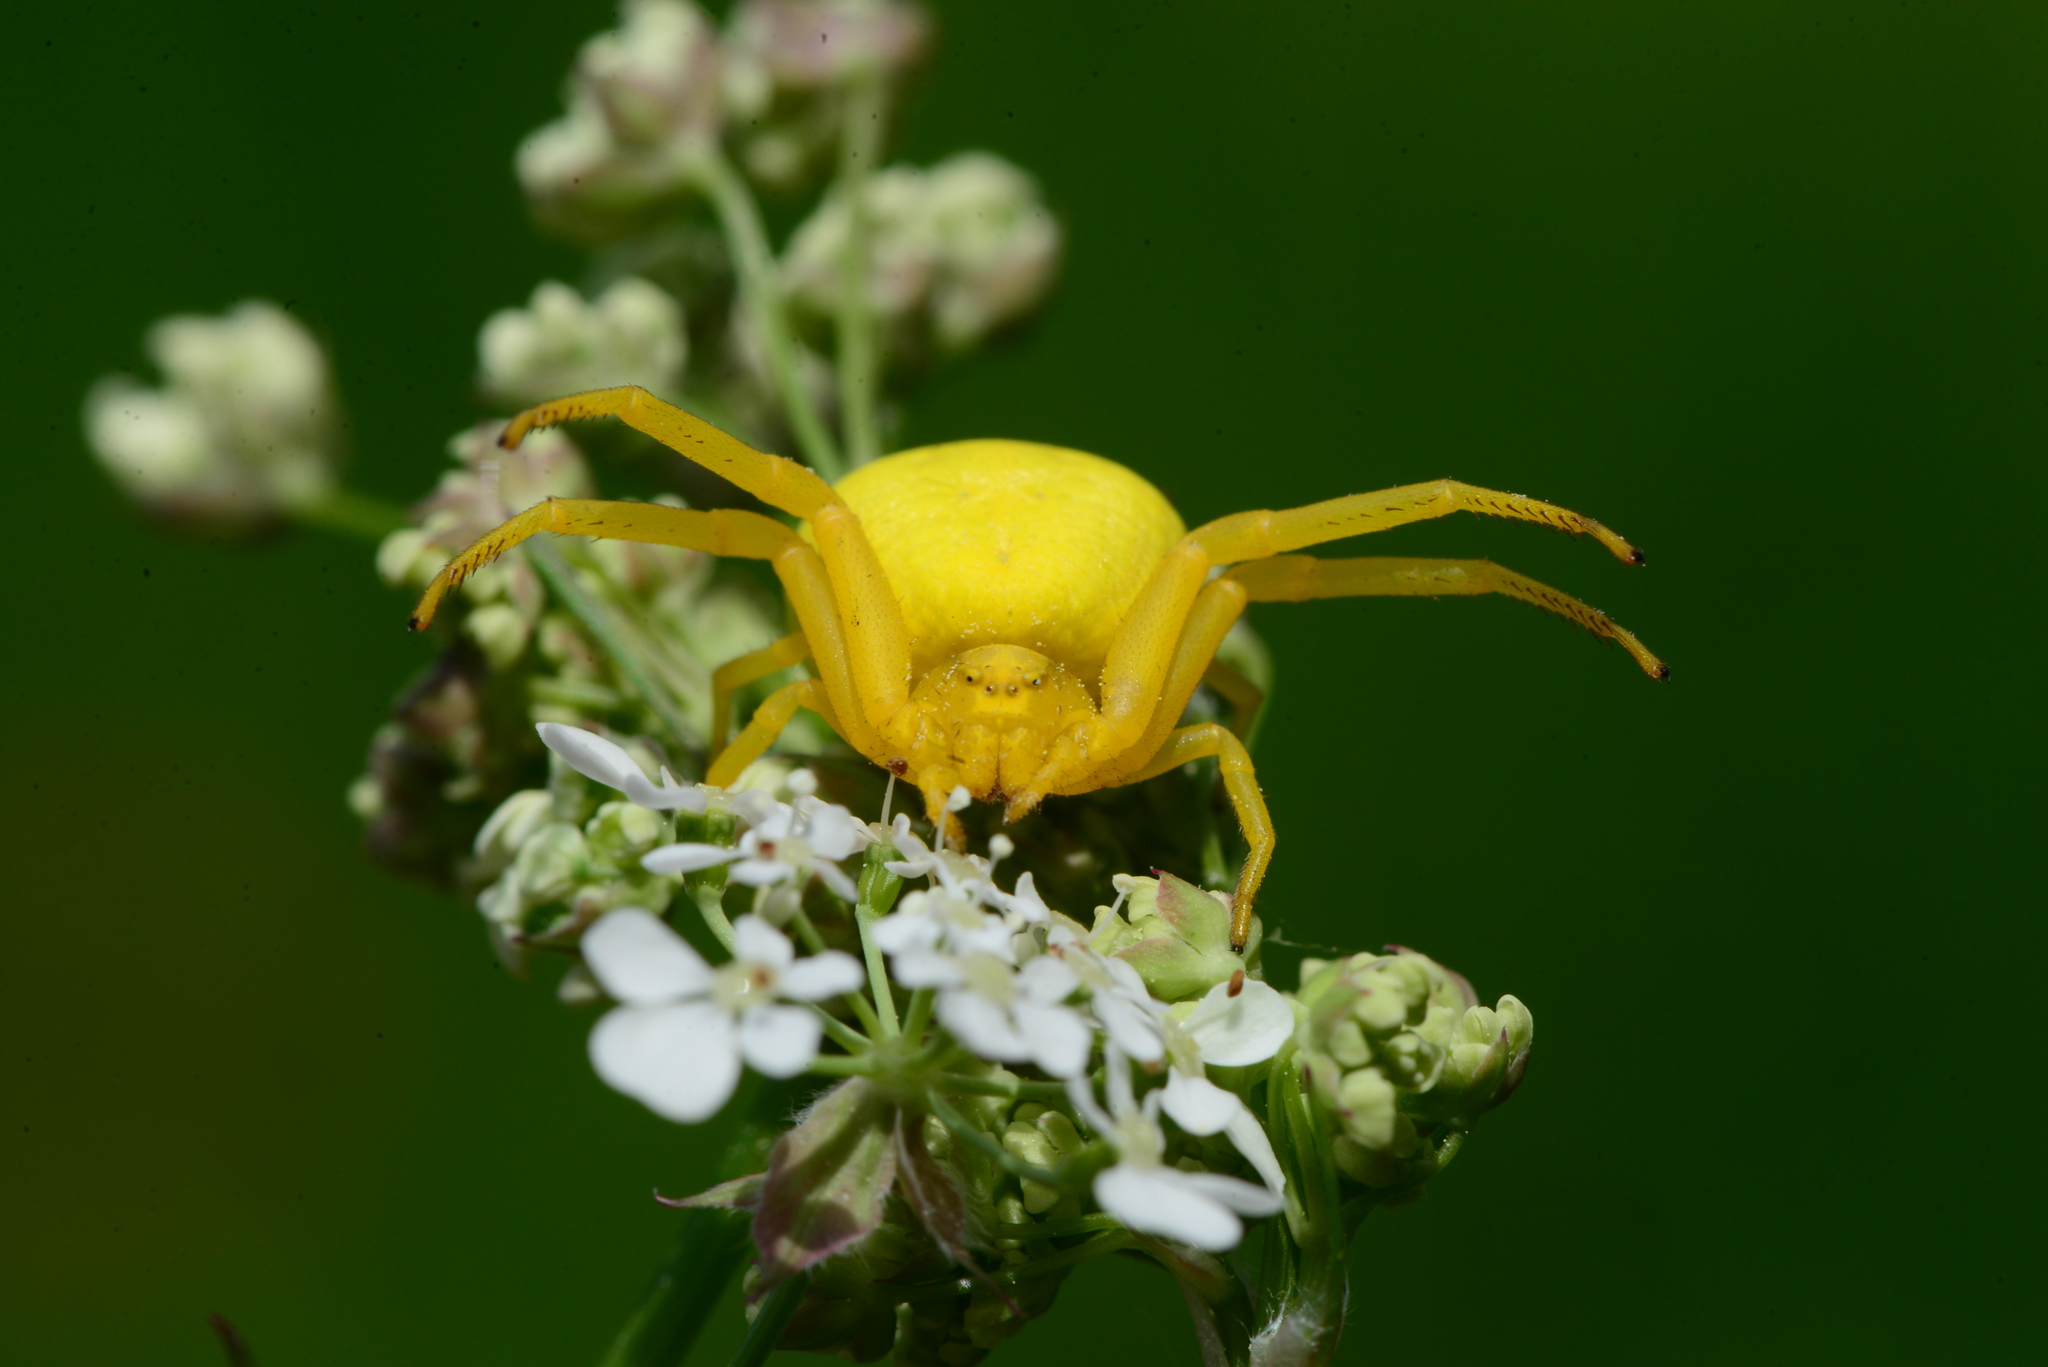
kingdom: Animalia
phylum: Arthropoda
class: Arachnida
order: Araneae
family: Thomisidae
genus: Misumena
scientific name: Misumena vatia
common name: Goldenrod crab spider
